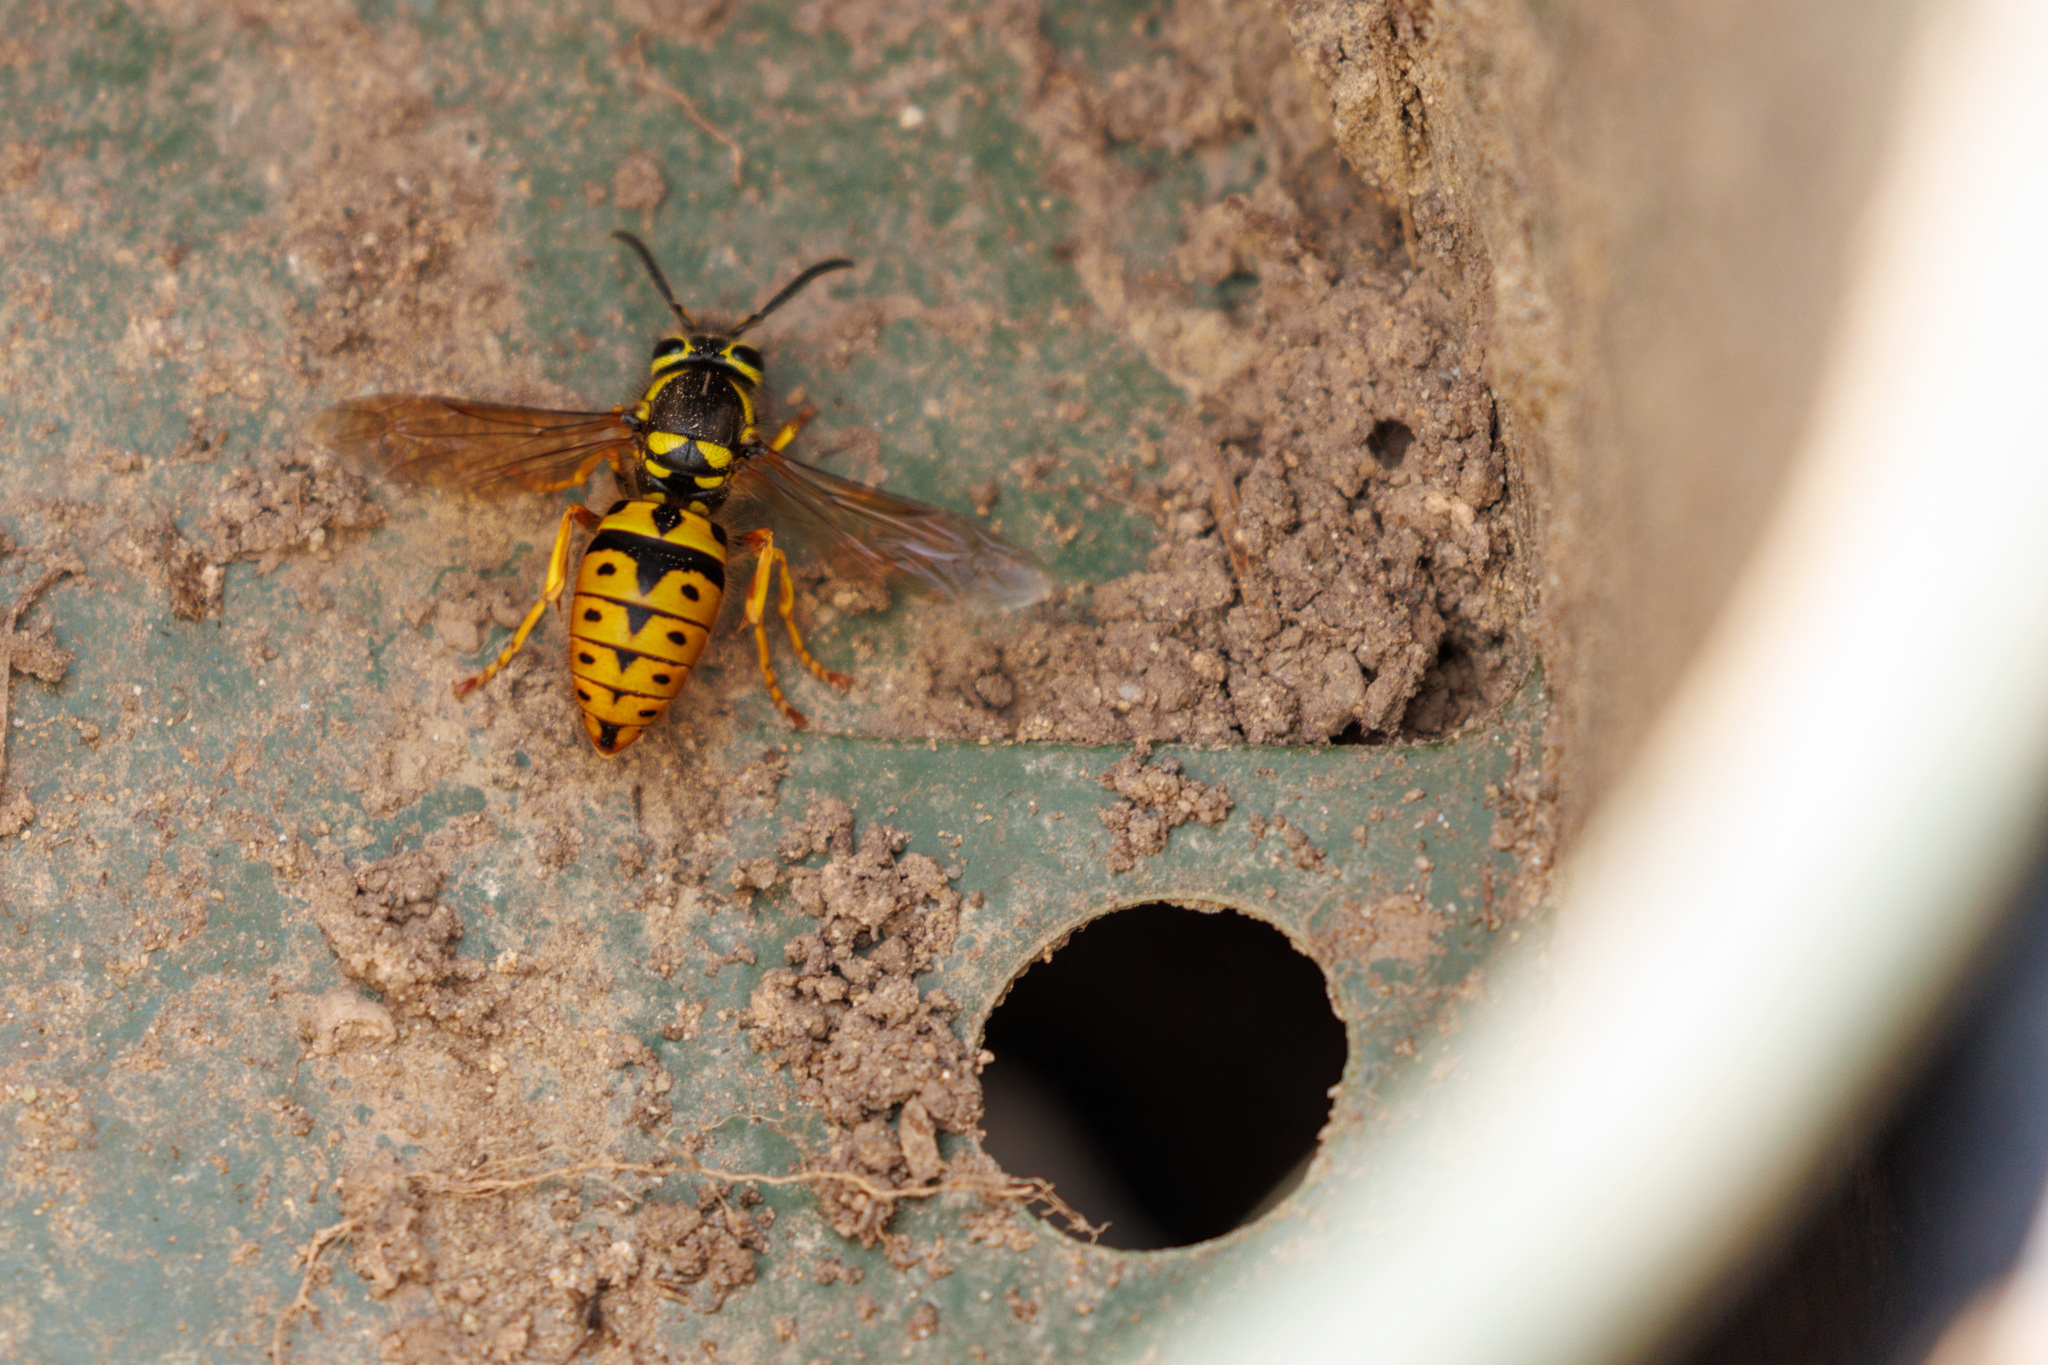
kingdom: Animalia
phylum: Arthropoda
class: Insecta
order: Hymenoptera
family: Vespidae
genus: Vespula
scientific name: Vespula pensylvanica
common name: Western yellowjacket
